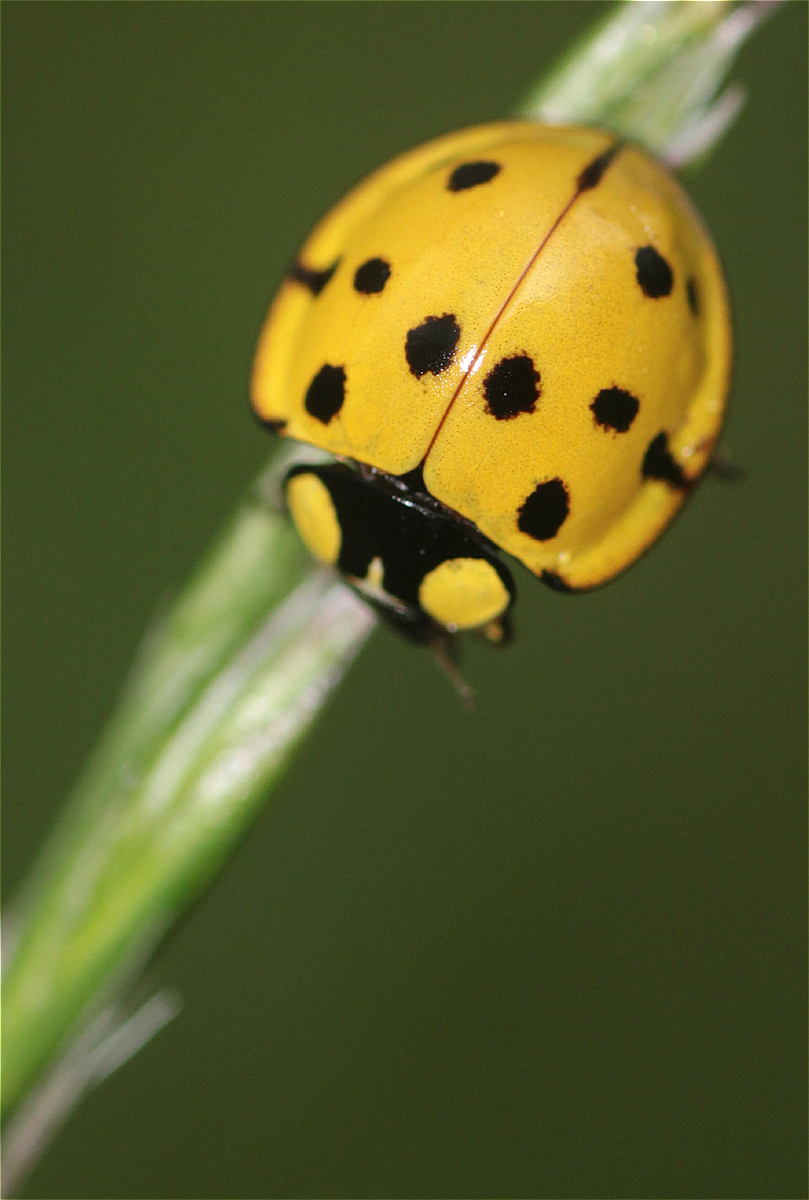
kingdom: Animalia
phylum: Arthropoda
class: Insecta
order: Coleoptera
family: Coccinellidae
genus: Neda
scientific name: Neda aequatoriana
